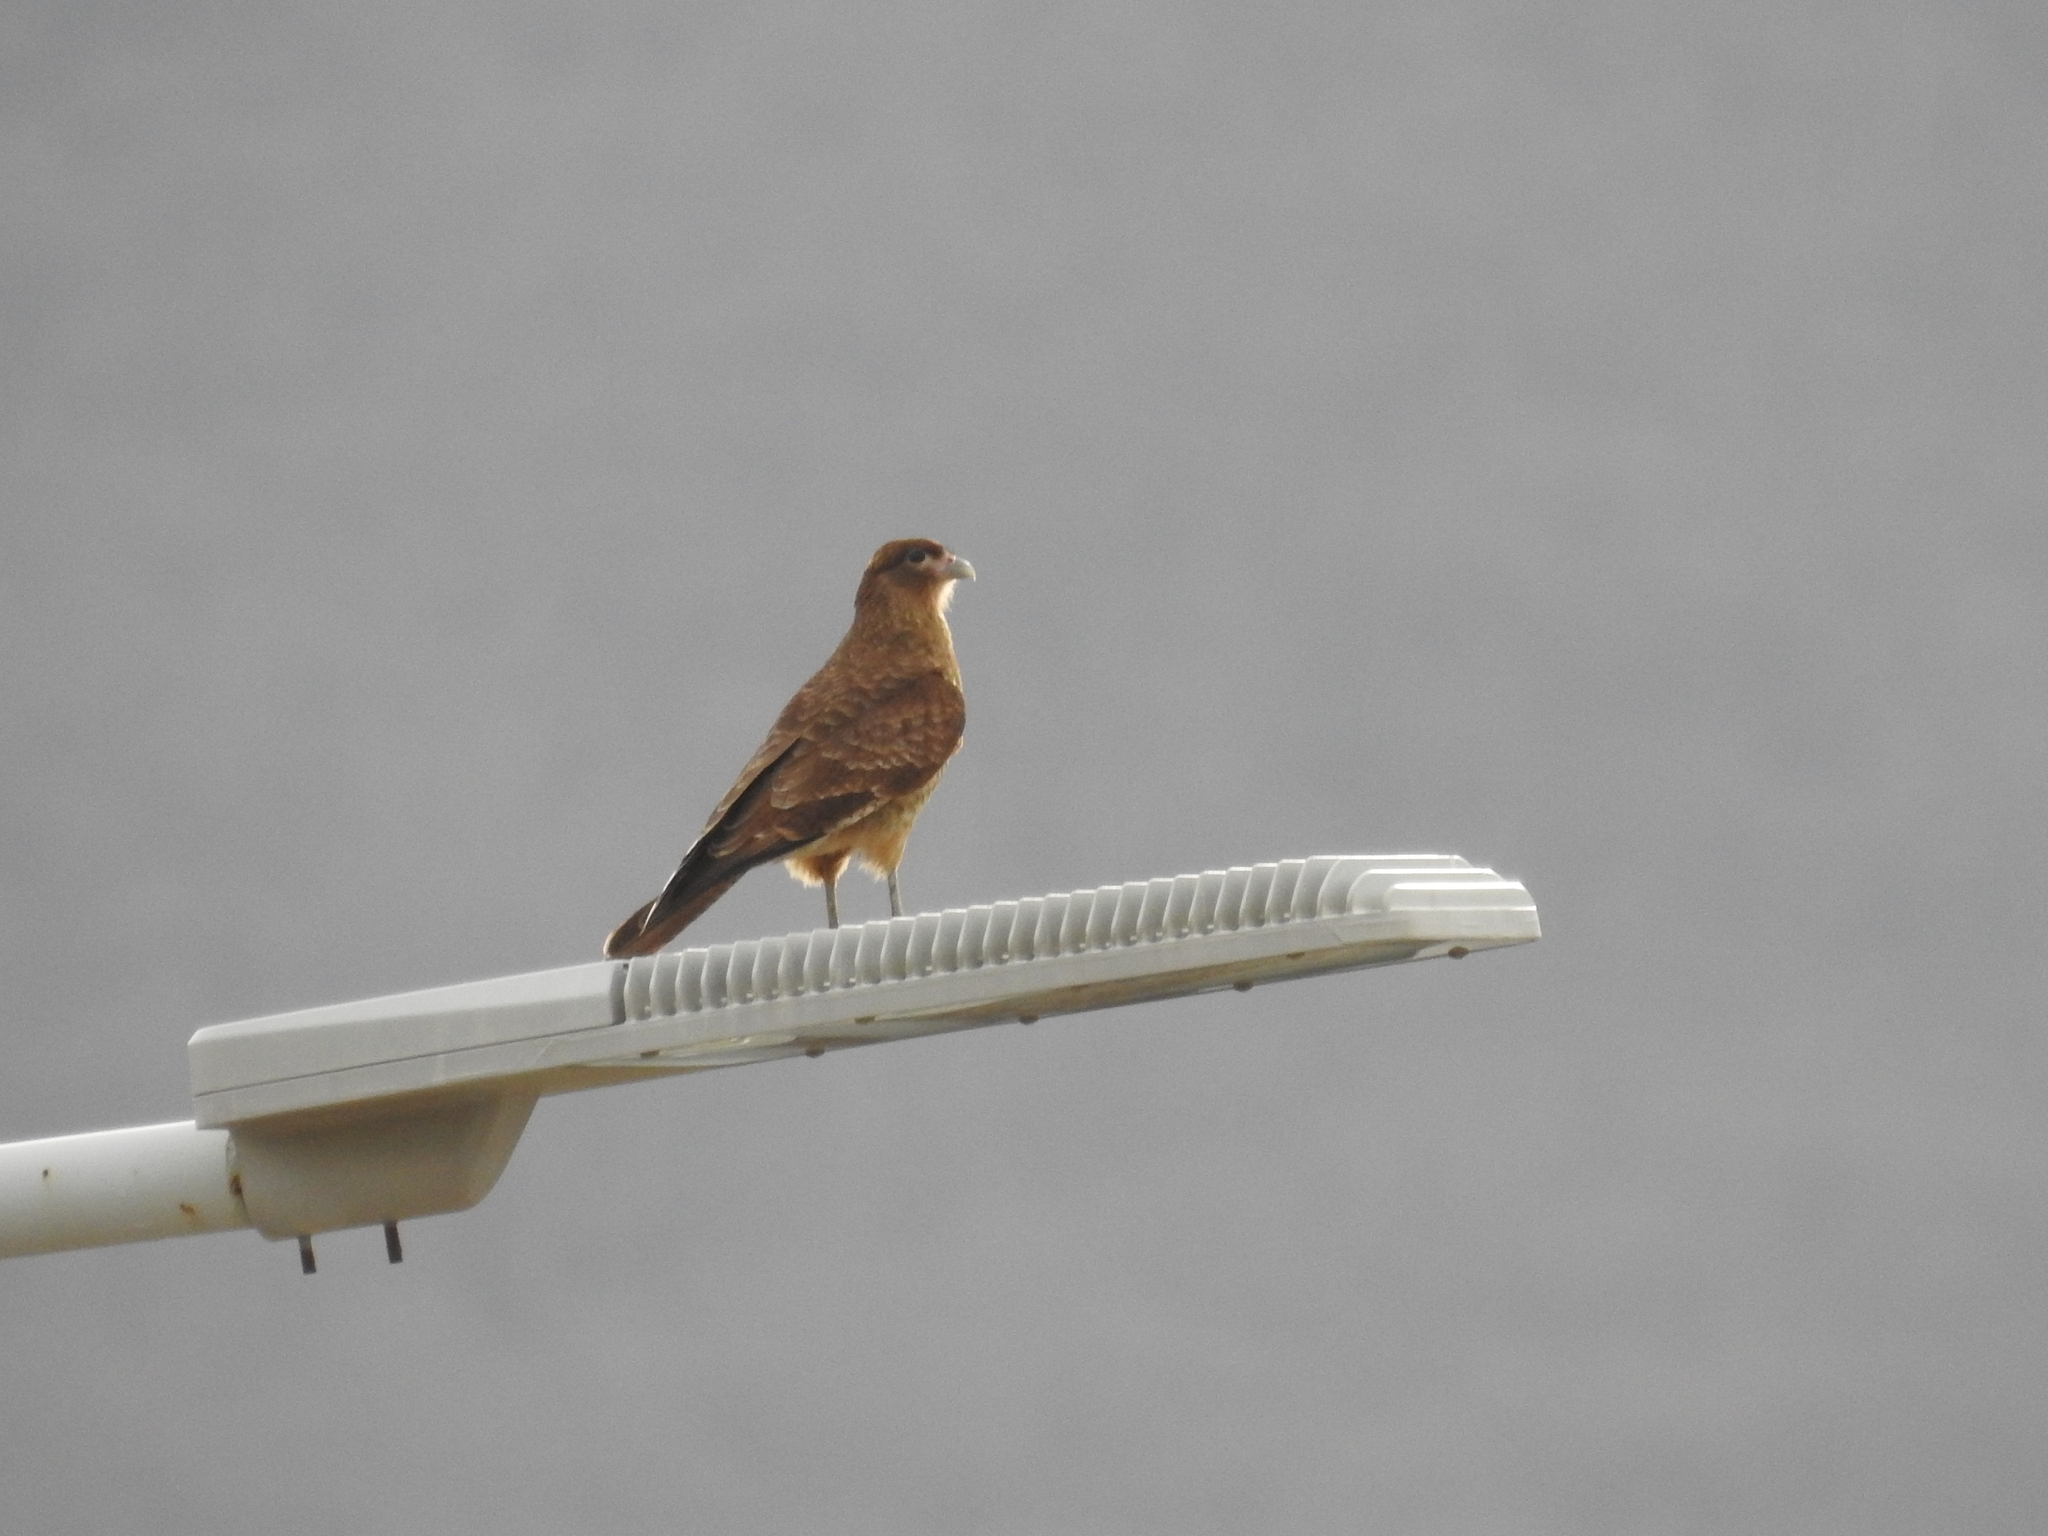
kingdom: Animalia
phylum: Chordata
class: Aves
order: Falconiformes
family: Falconidae
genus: Daptrius
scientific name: Daptrius
